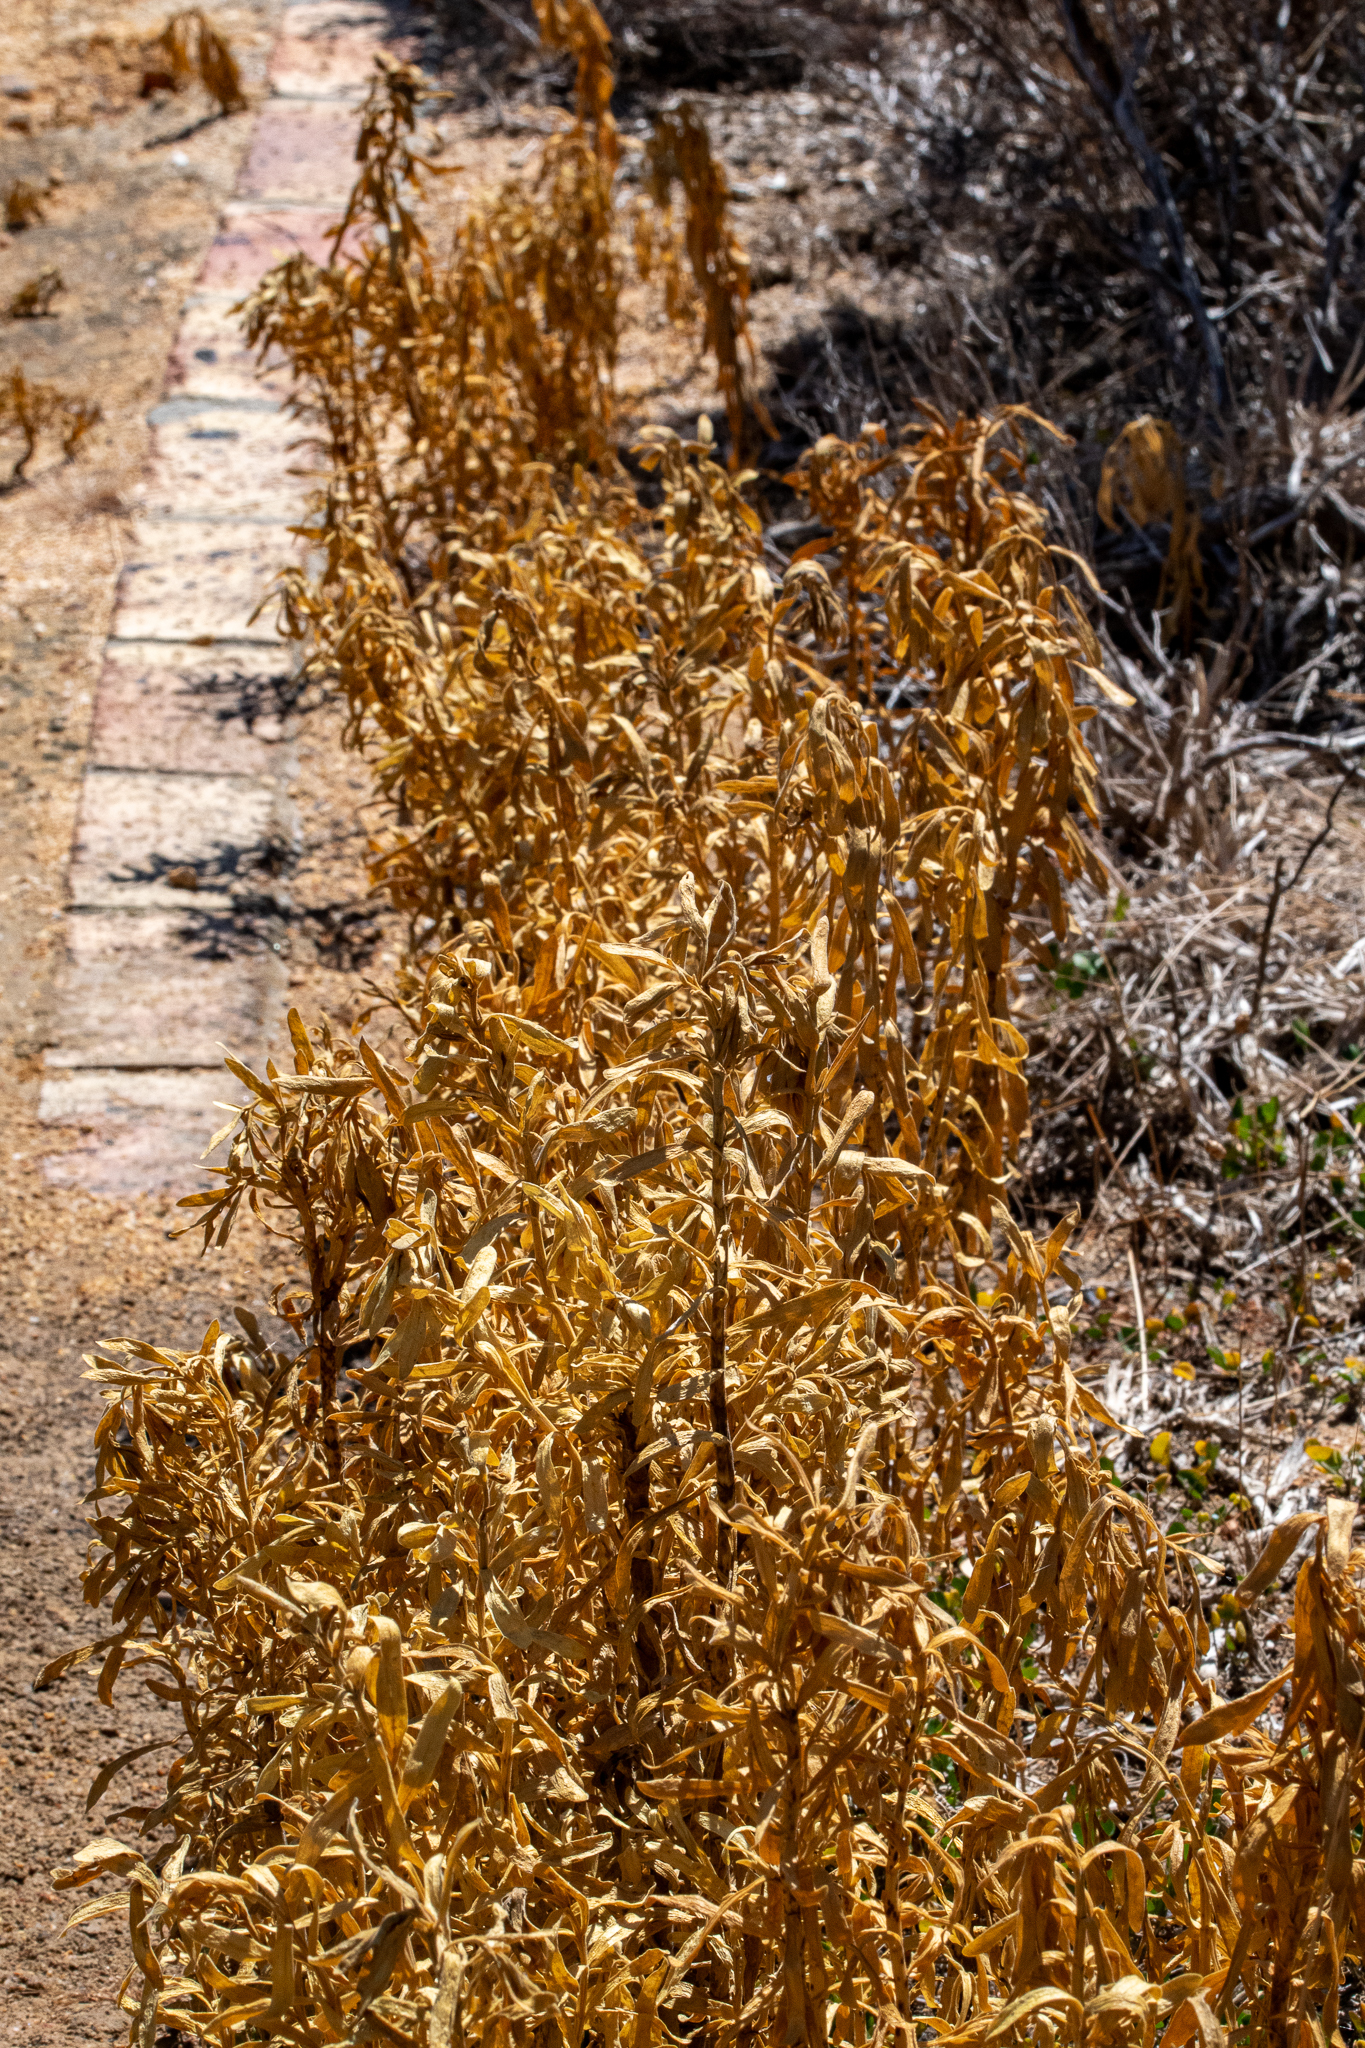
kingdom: Plantae
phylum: Tracheophyta
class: Magnoliopsida
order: Gentianales
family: Gentianaceae
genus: Orphium
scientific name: Orphium frutescens
